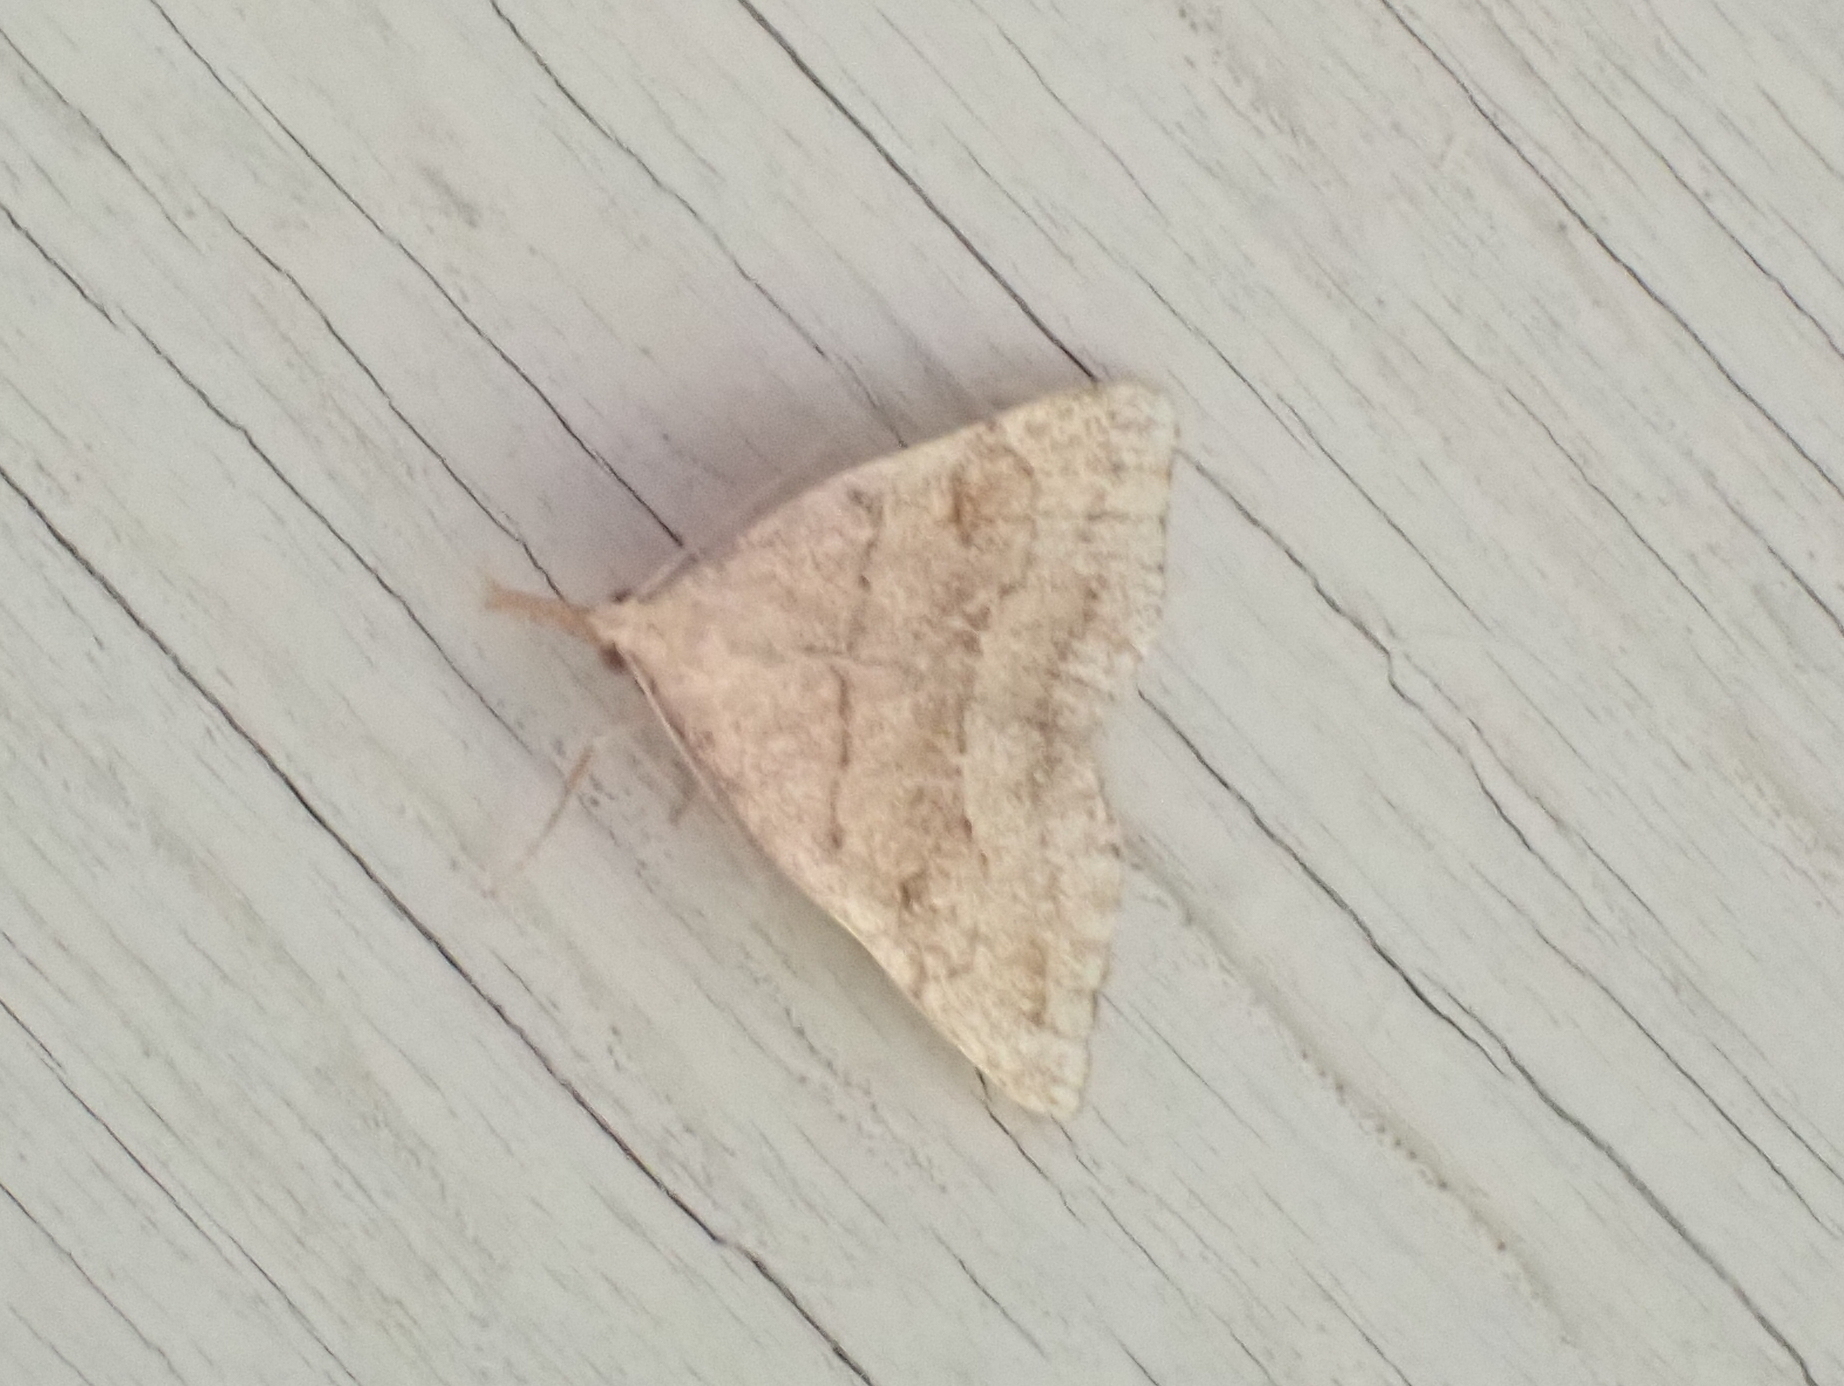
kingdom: Animalia
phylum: Arthropoda
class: Insecta
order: Lepidoptera
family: Erebidae
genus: Phalaenostola
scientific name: Phalaenostola metonalis
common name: Pale phalaenostola moth
